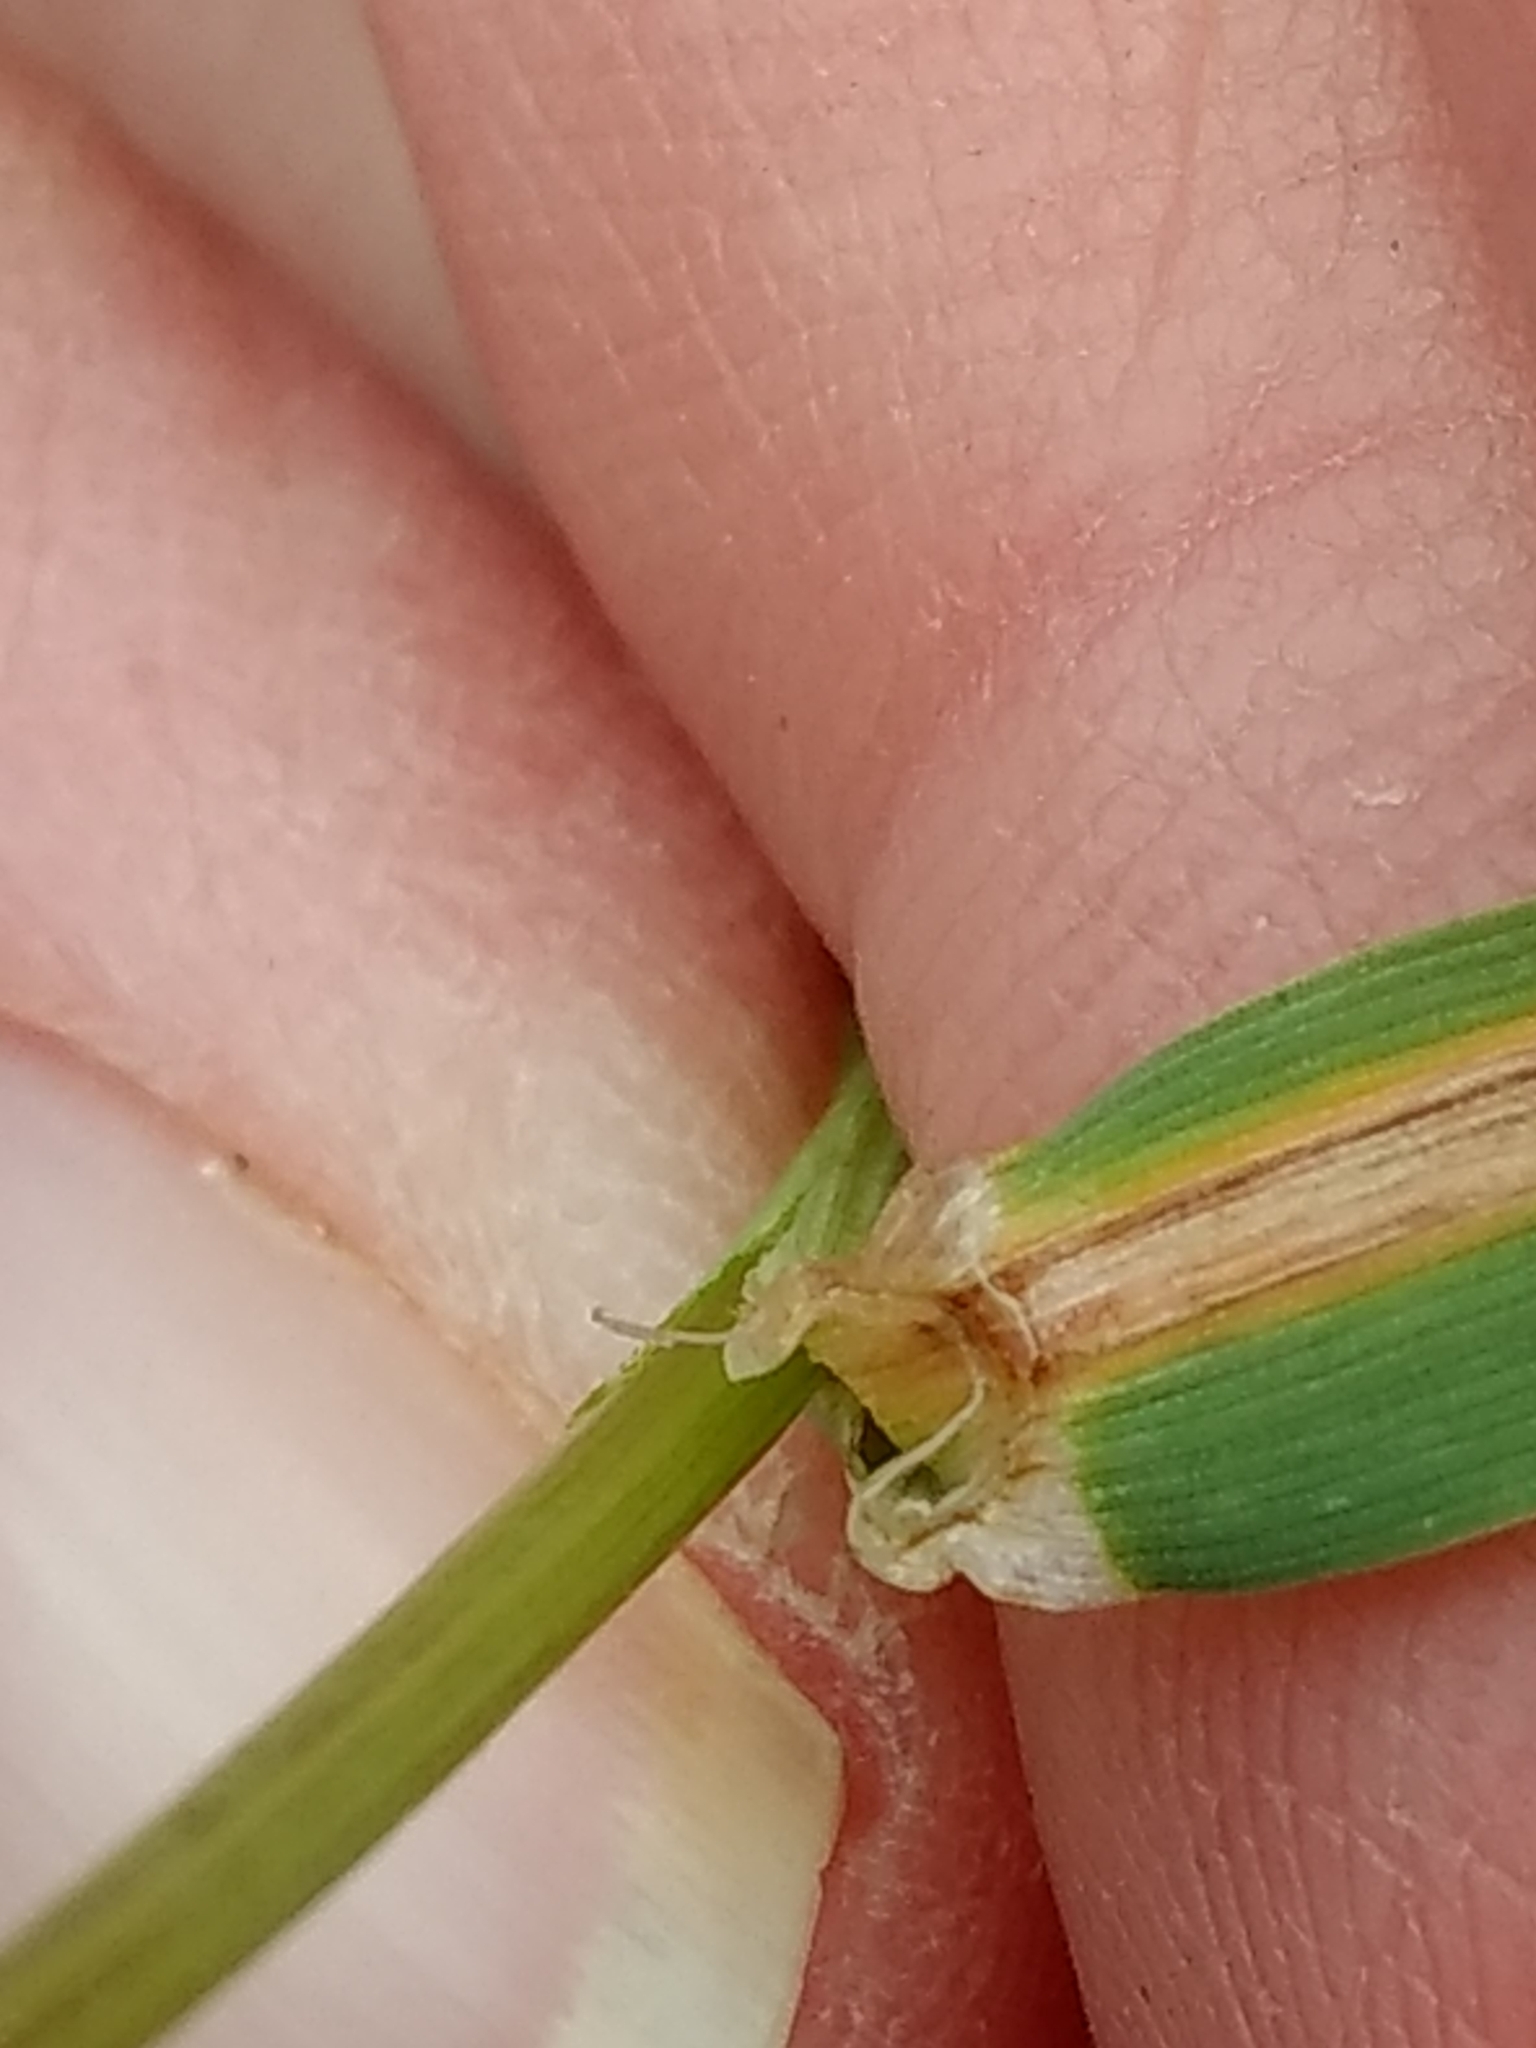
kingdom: Plantae
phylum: Tracheophyta
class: Liliopsida
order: Poales
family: Poaceae
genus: Hordeum
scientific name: Hordeum murinum
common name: Wall barley
